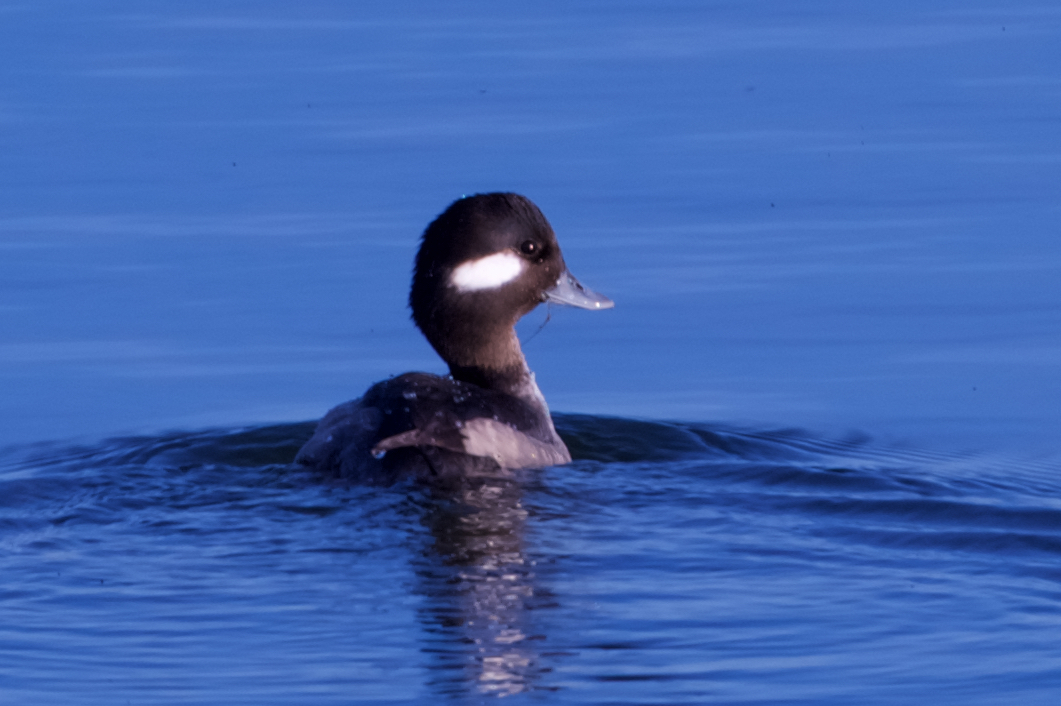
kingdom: Animalia
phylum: Chordata
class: Aves
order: Anseriformes
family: Anatidae
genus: Bucephala
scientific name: Bucephala albeola
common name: Bufflehead
